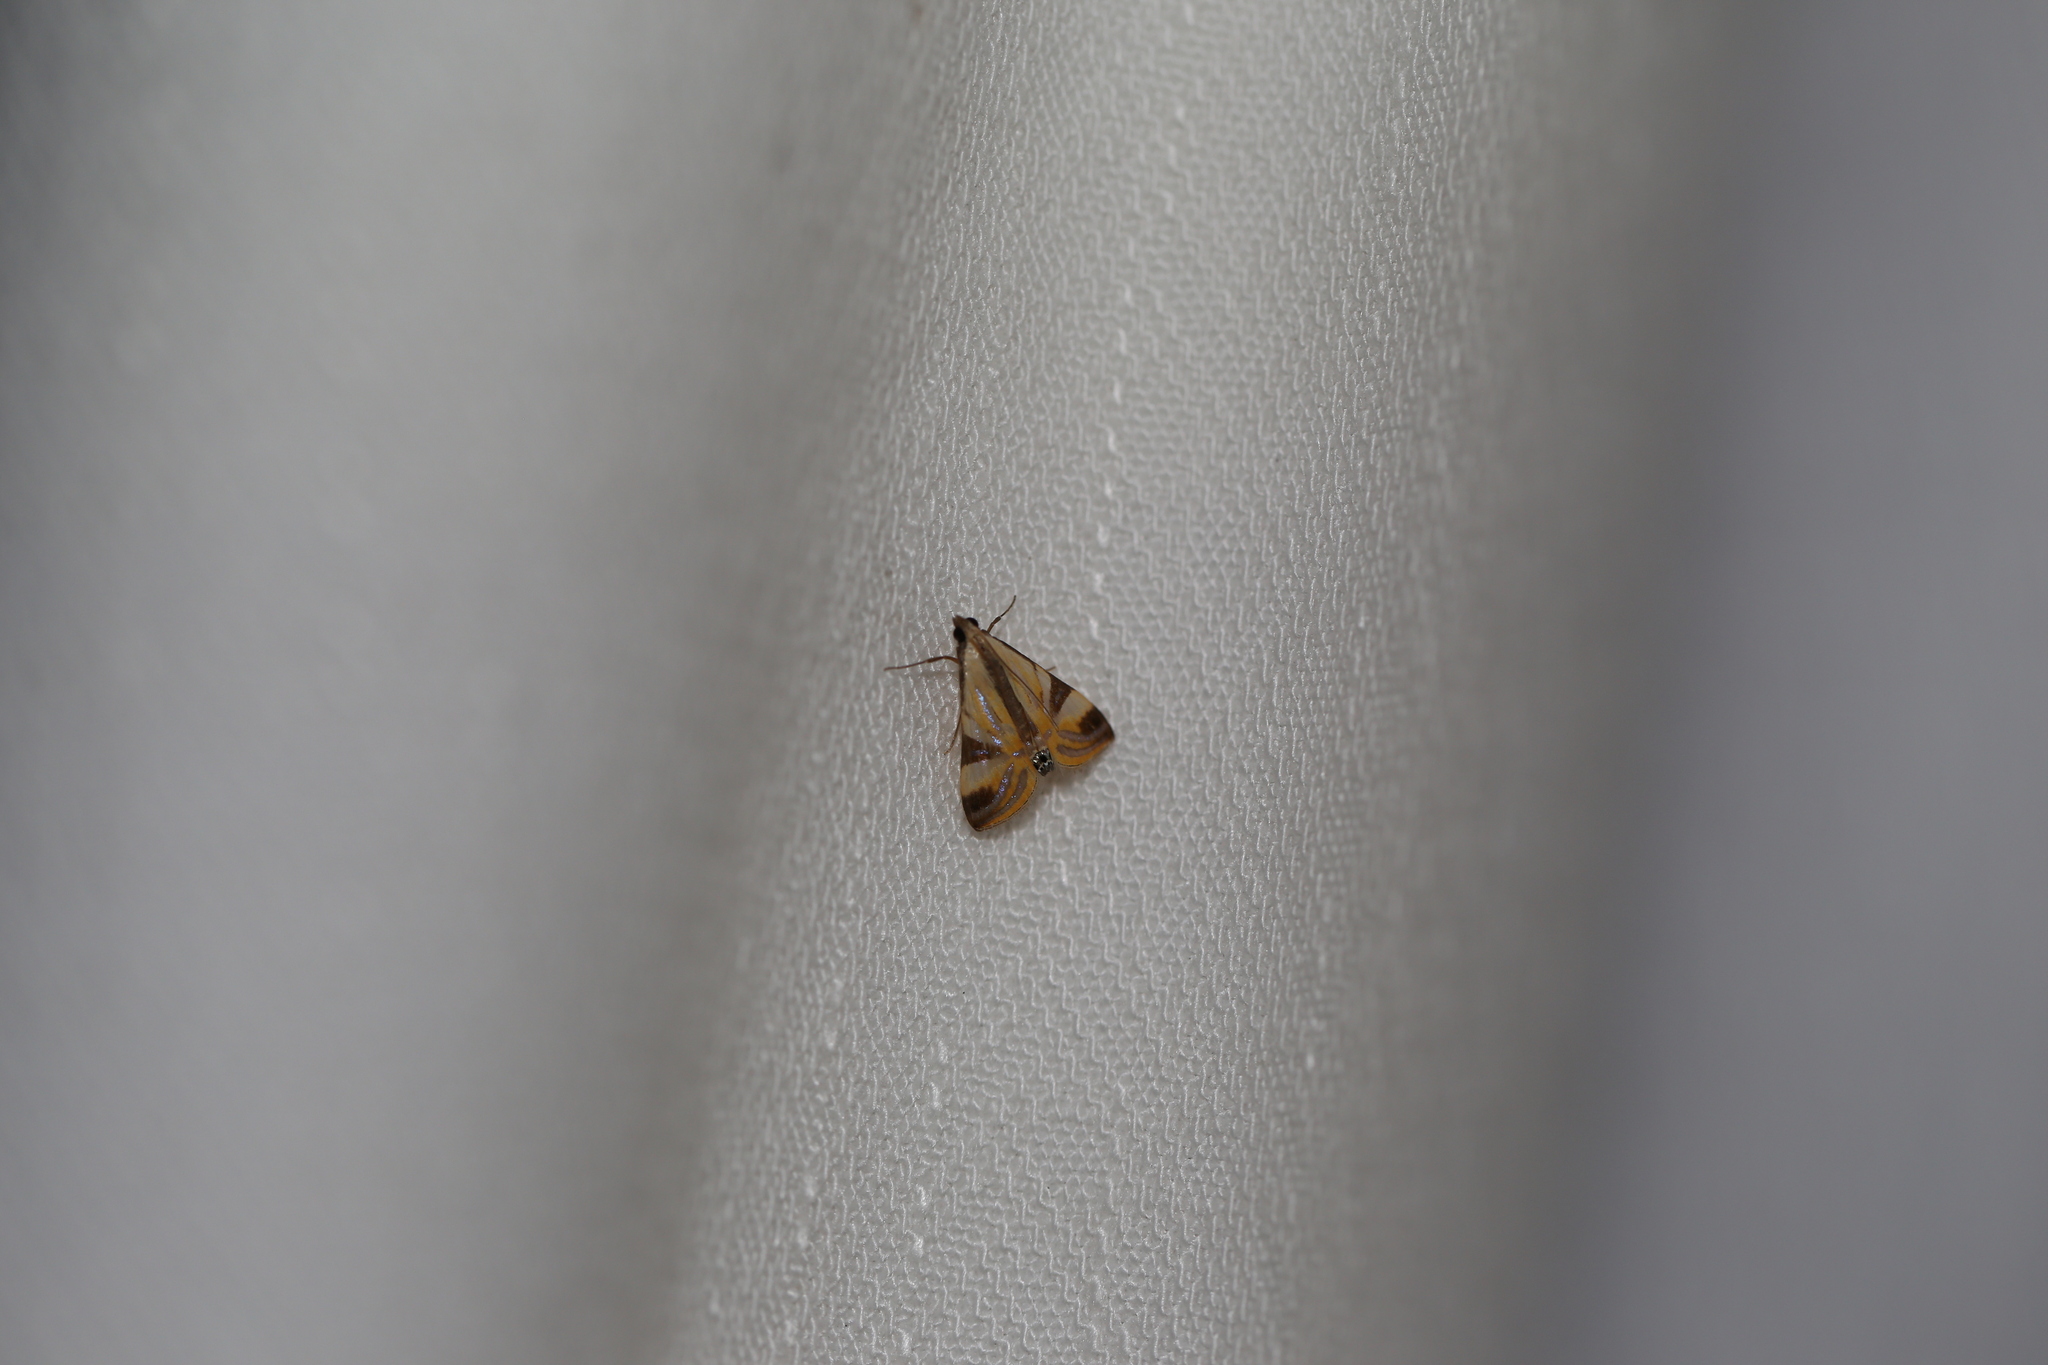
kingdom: Animalia
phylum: Arthropoda
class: Insecta
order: Lepidoptera
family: Crambidae
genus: Talanga
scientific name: Talanga tolumnialis
